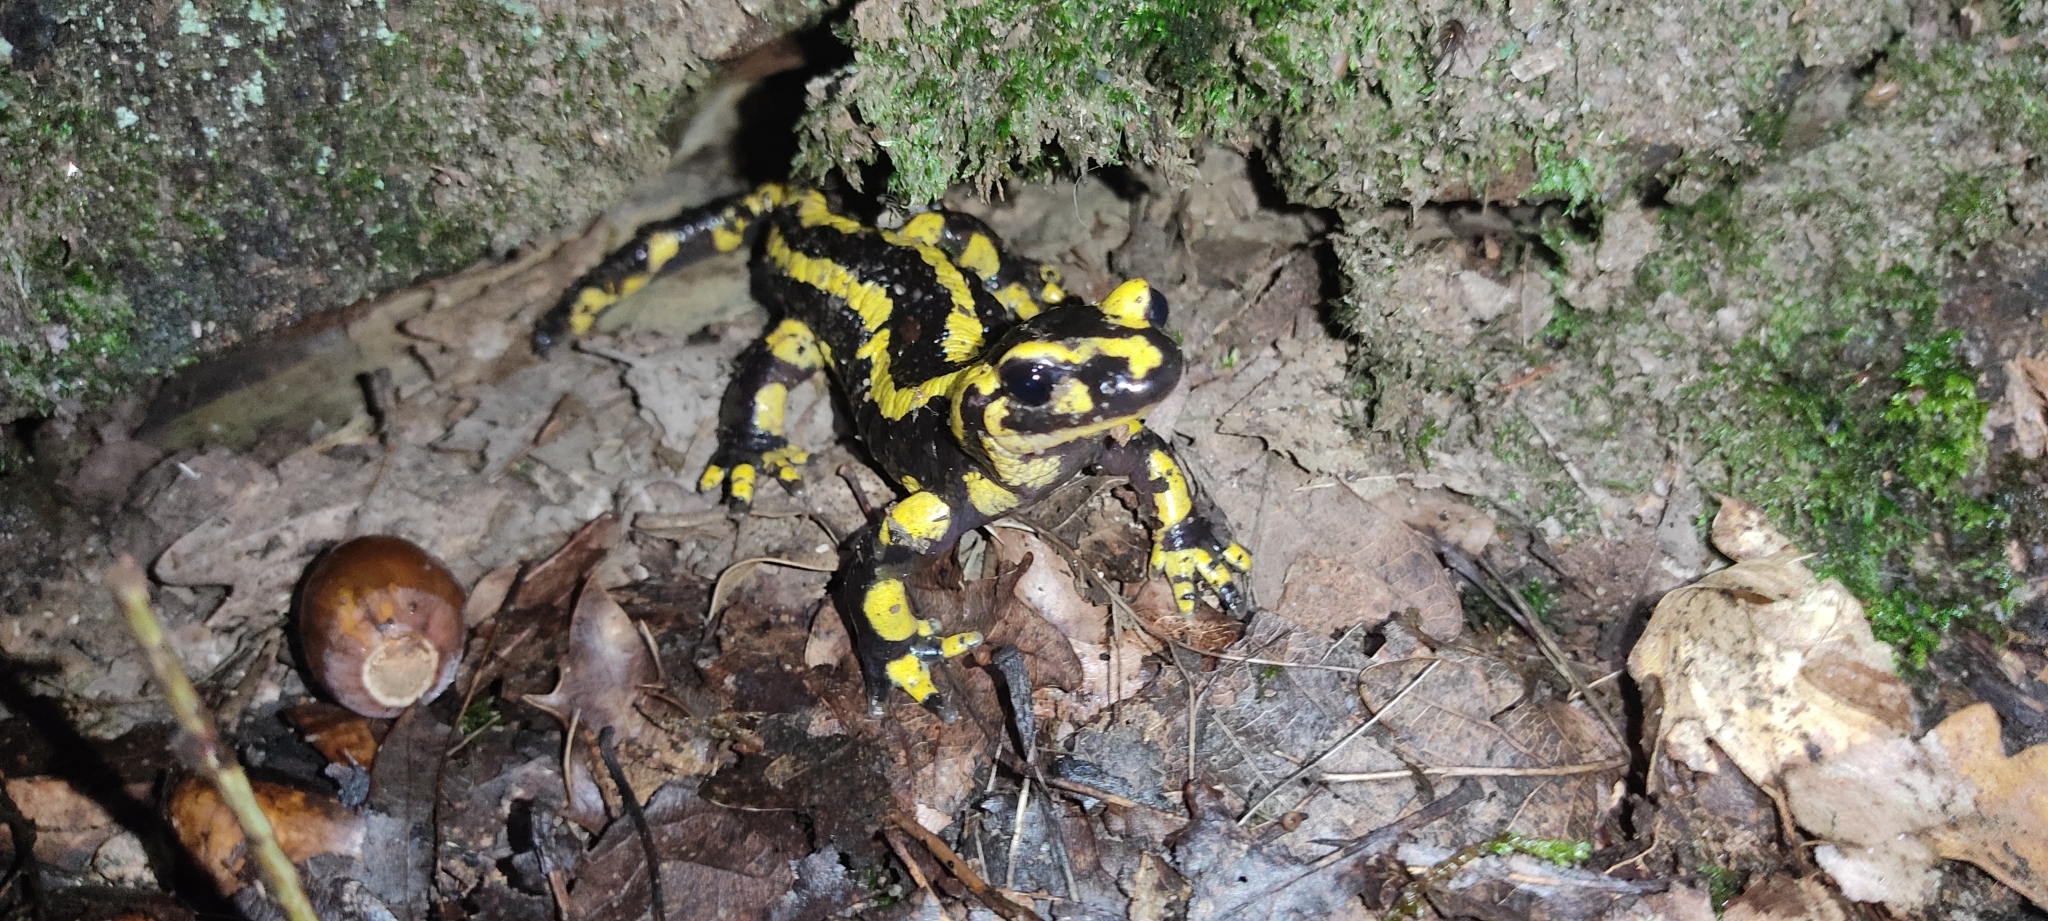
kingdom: Animalia
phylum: Chordata
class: Amphibia
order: Caudata
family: Salamandridae
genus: Salamandra
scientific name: Salamandra salamandra
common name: Fire salamander
